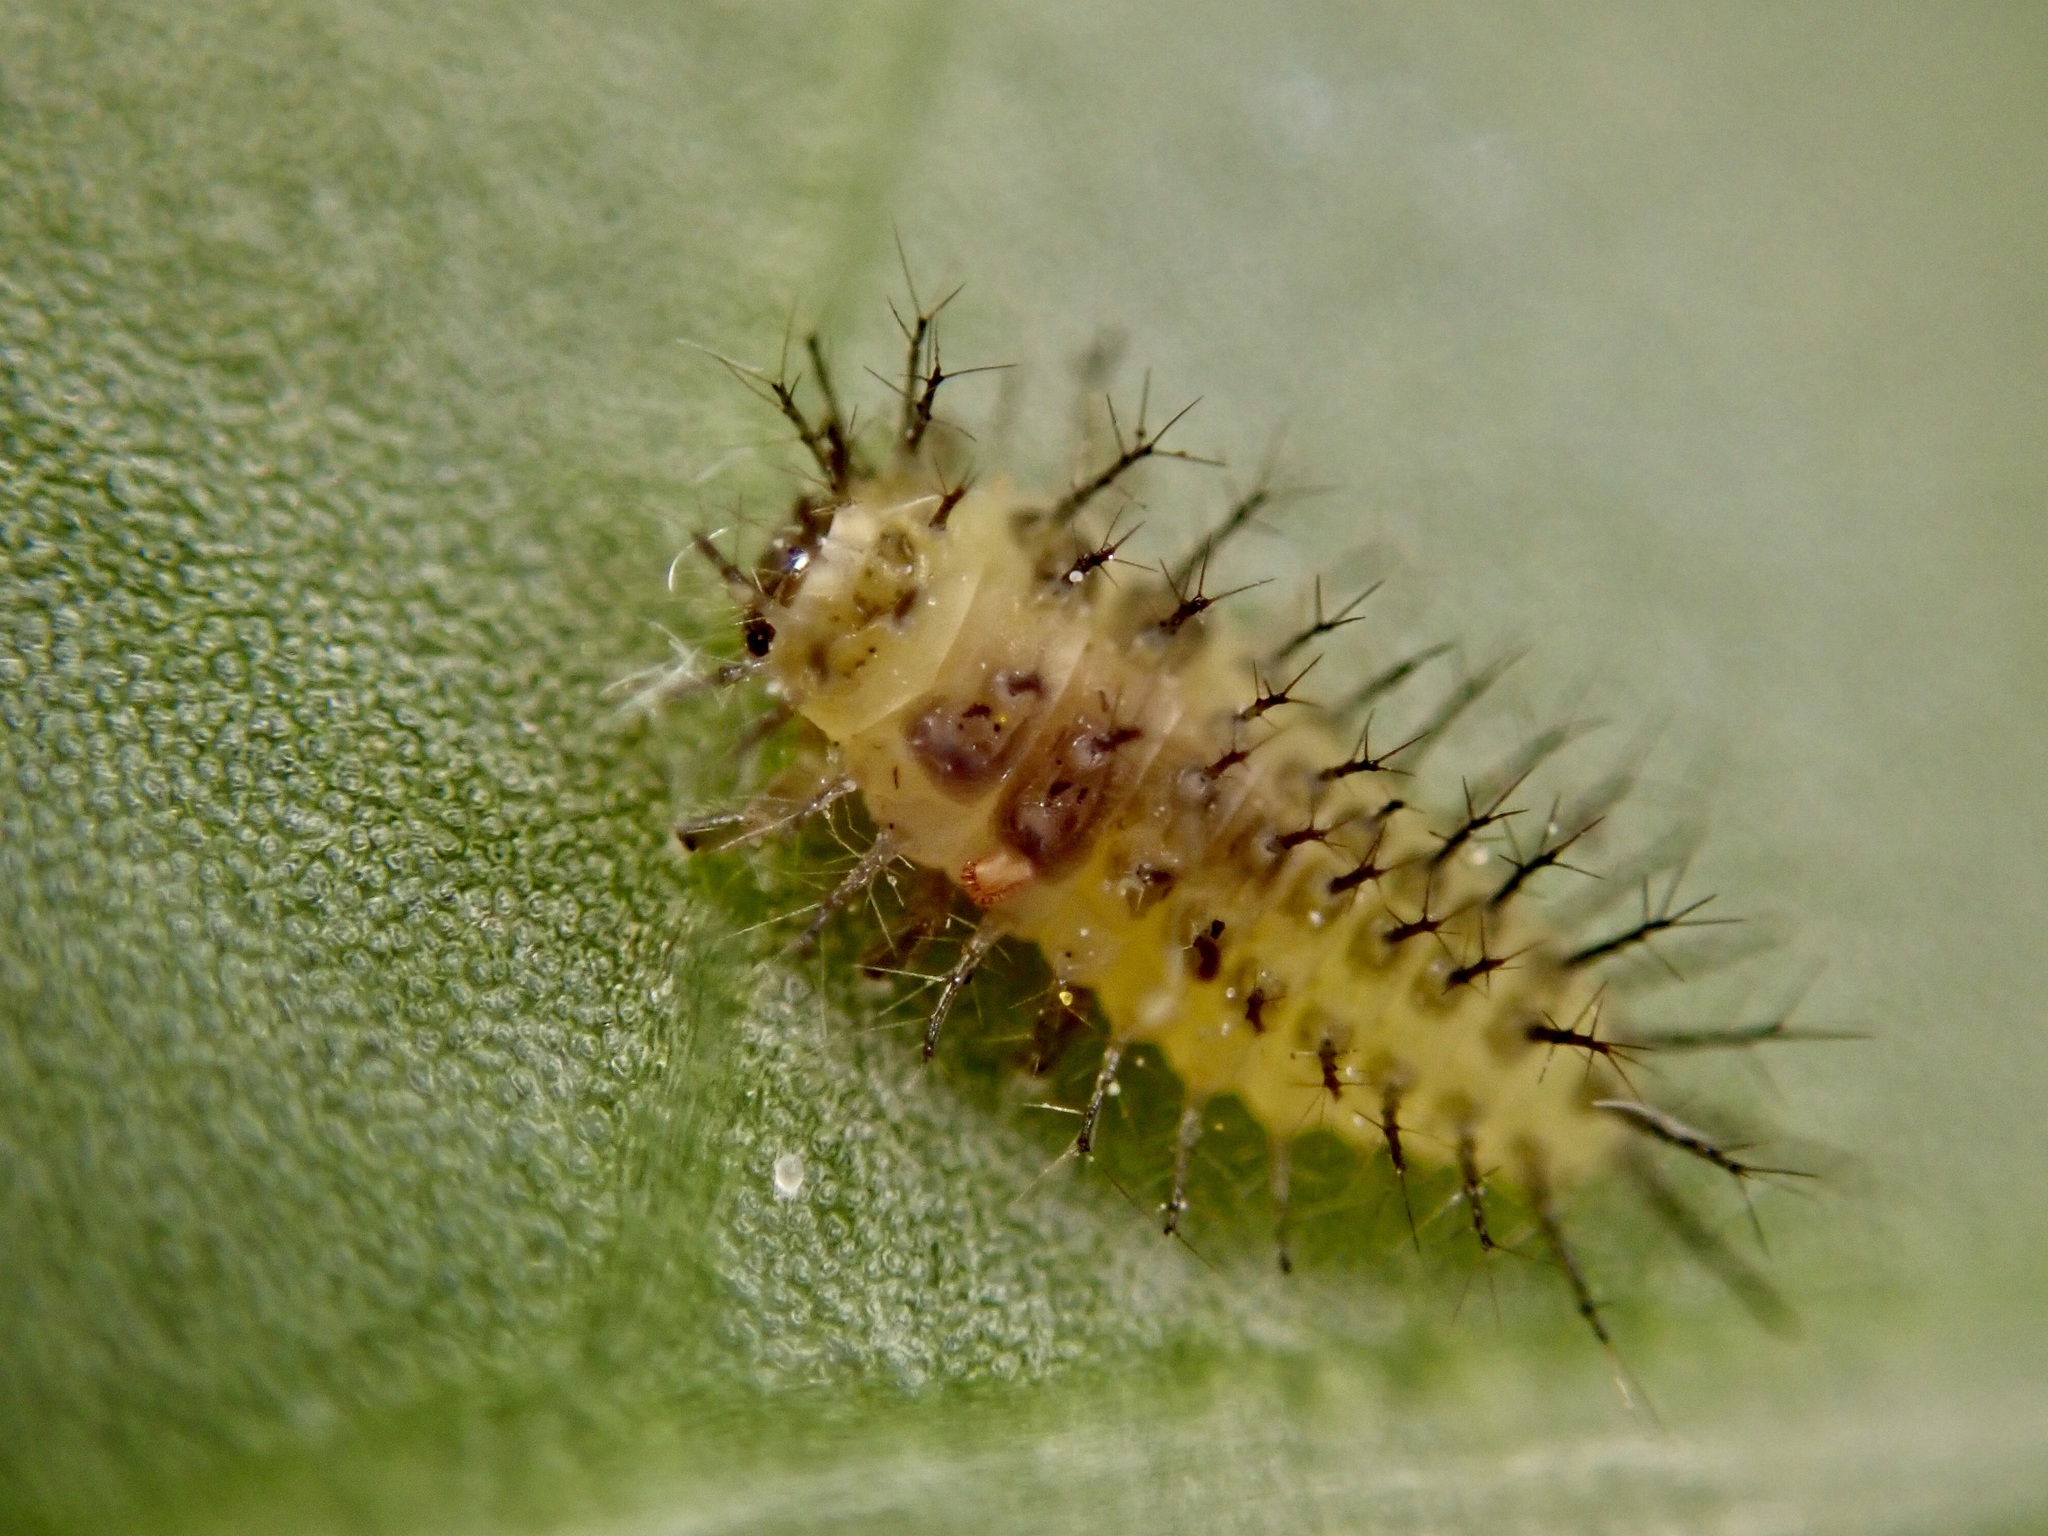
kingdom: Animalia
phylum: Arthropoda
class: Insecta
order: Coleoptera
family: Coccinellidae
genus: Halmus
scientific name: Halmus chalybeus
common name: Steel blue ladybird beetle
